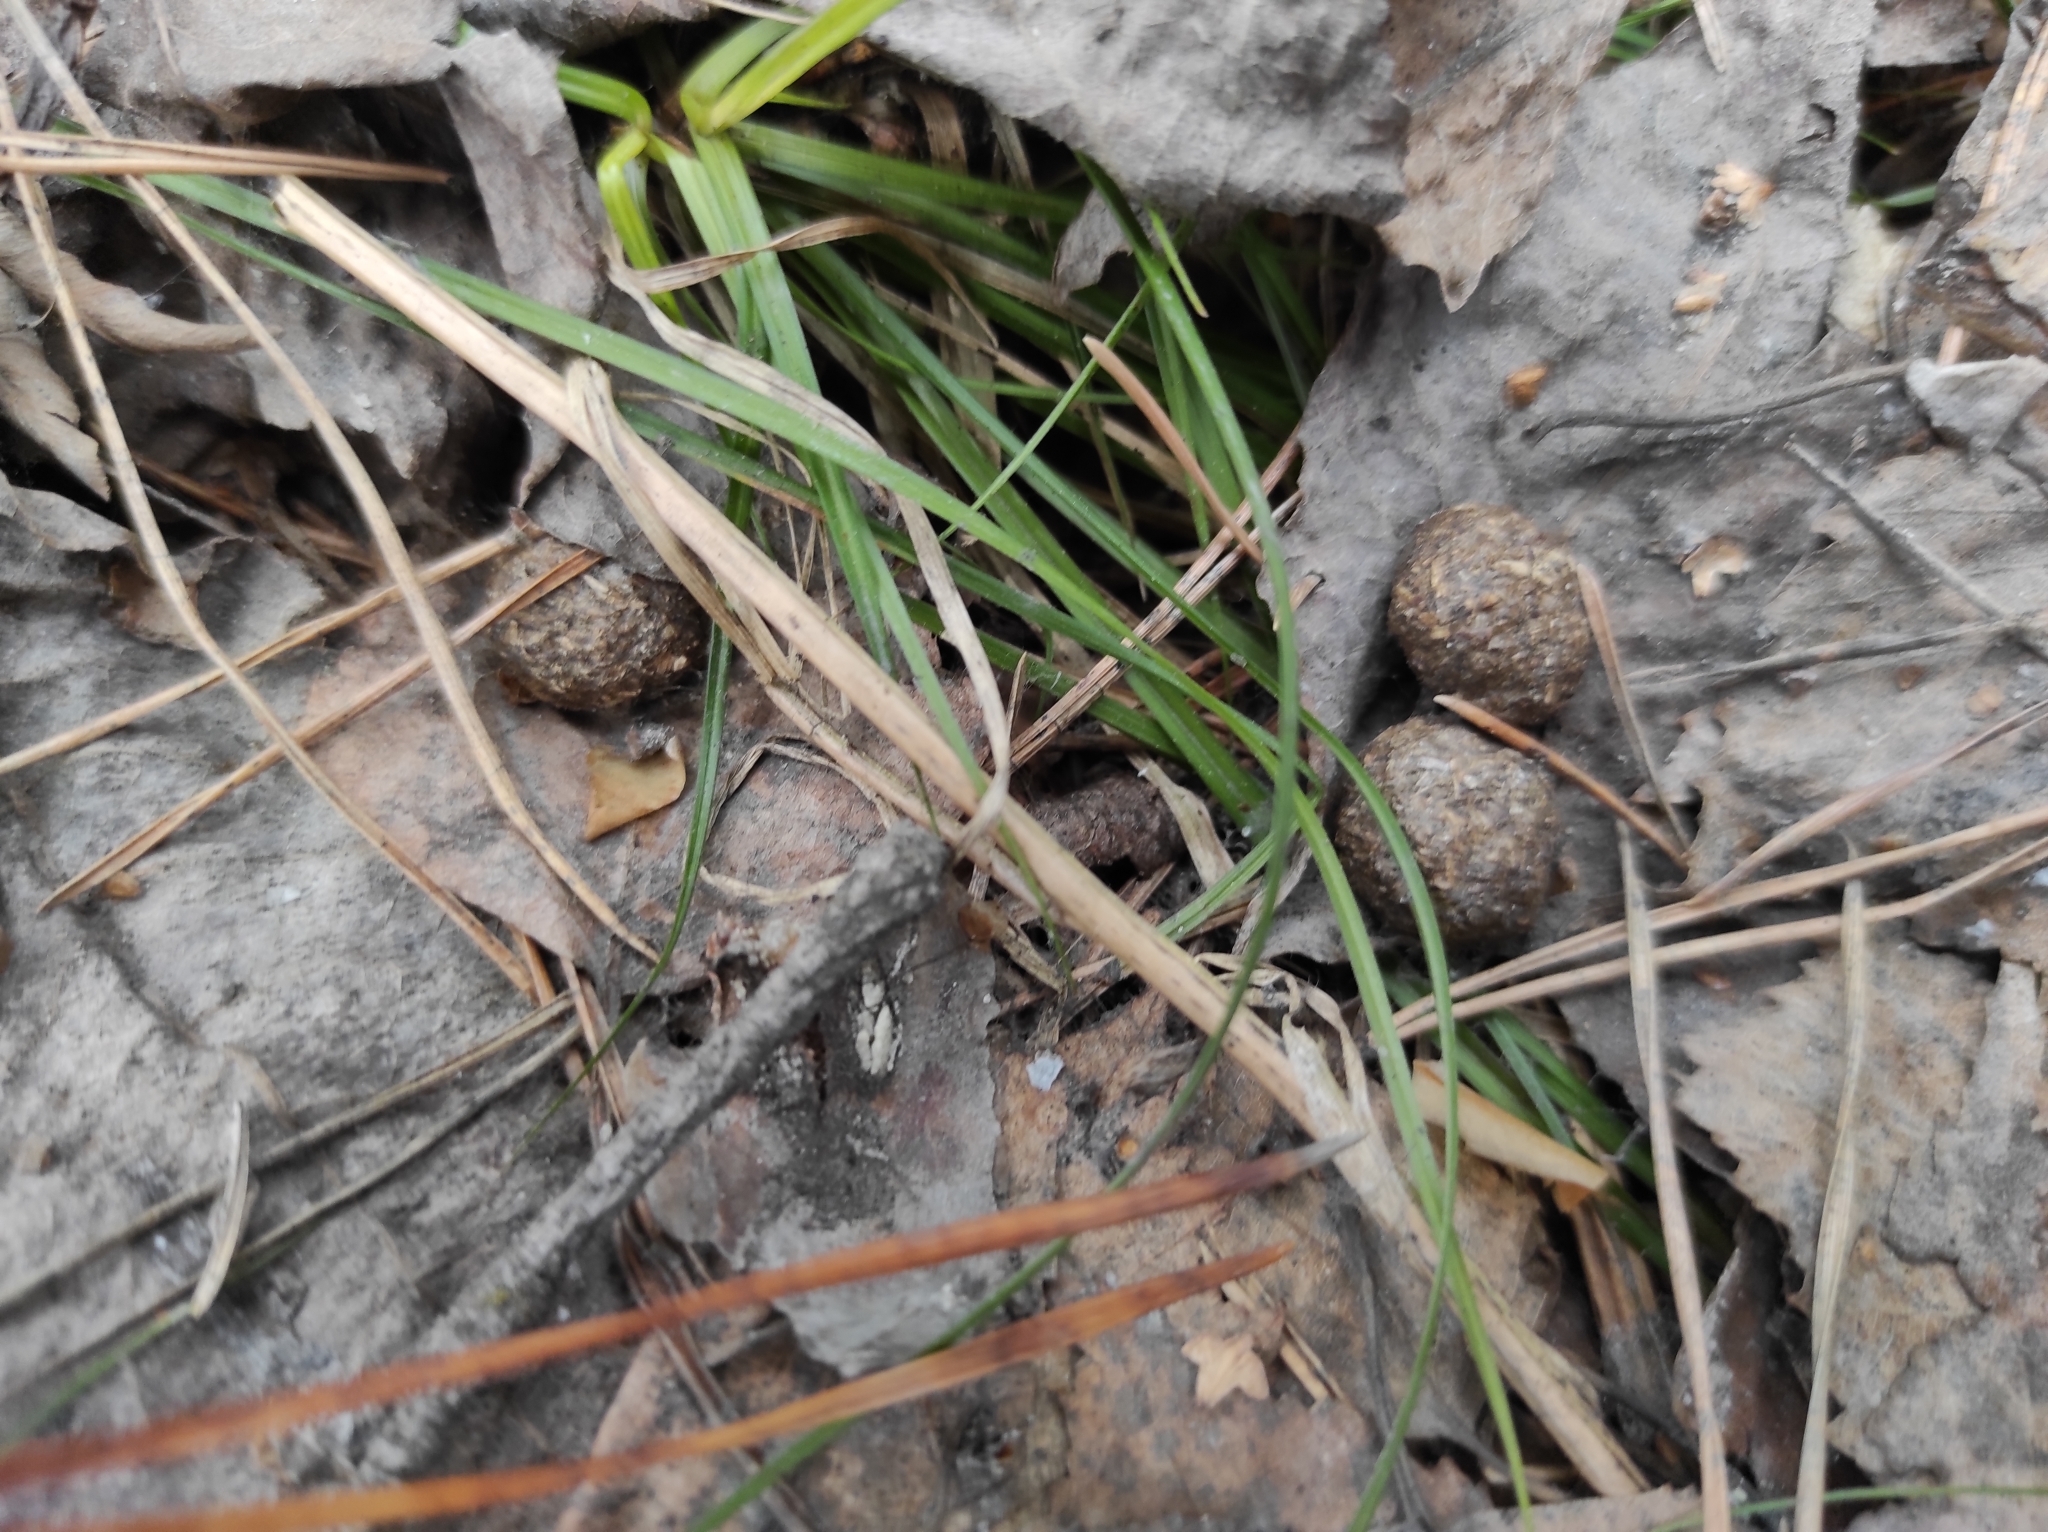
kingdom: Animalia
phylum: Chordata
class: Mammalia
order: Lagomorpha
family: Leporidae
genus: Lepus
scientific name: Lepus timidus
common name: Mountain hare
